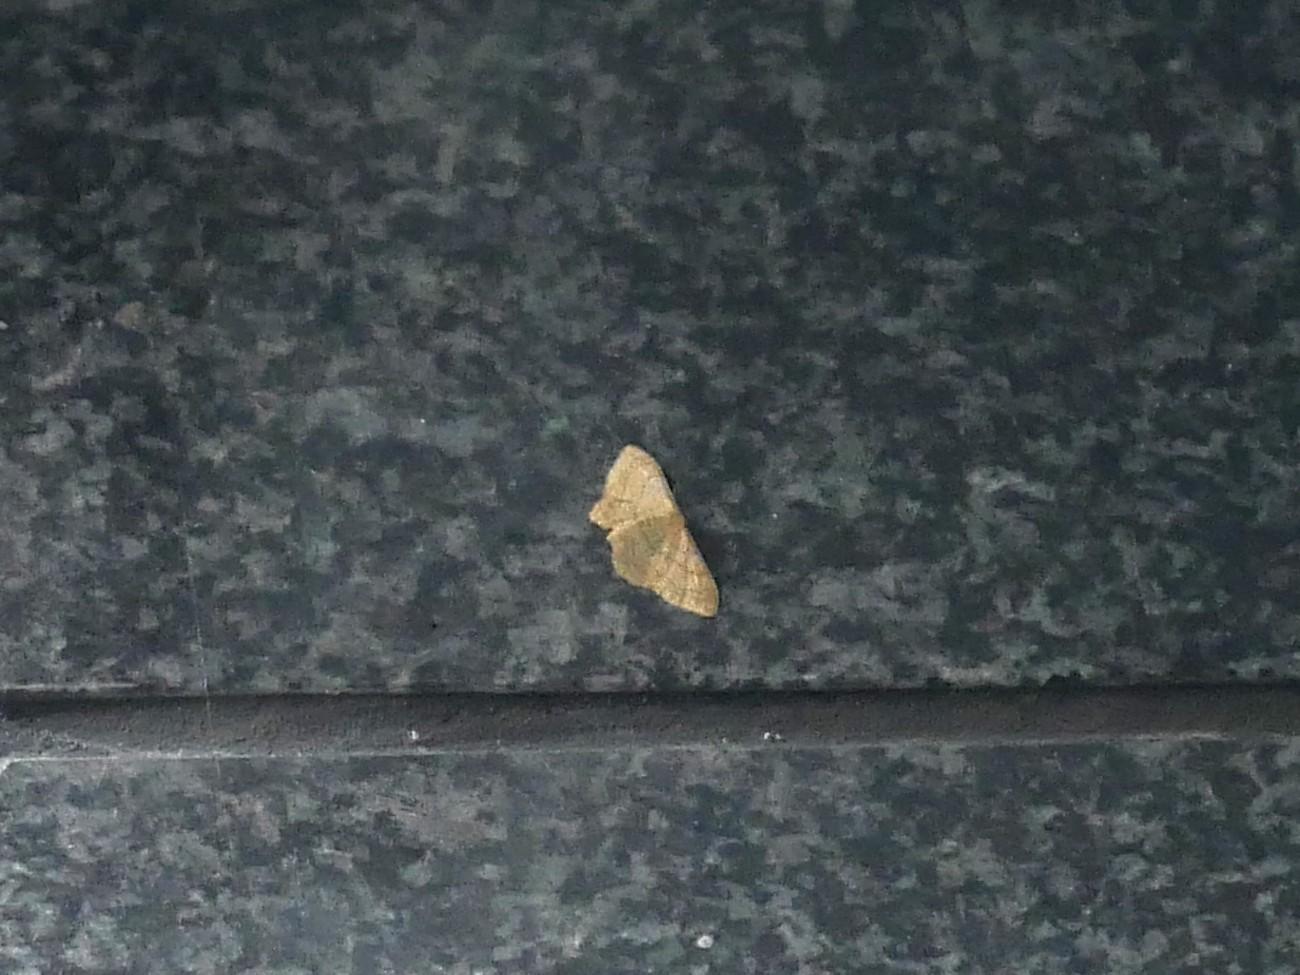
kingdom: Animalia
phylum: Arthropoda
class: Insecta
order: Lepidoptera
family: Geometridae
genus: Idaea
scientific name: Idaea aversata
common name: Riband wave
